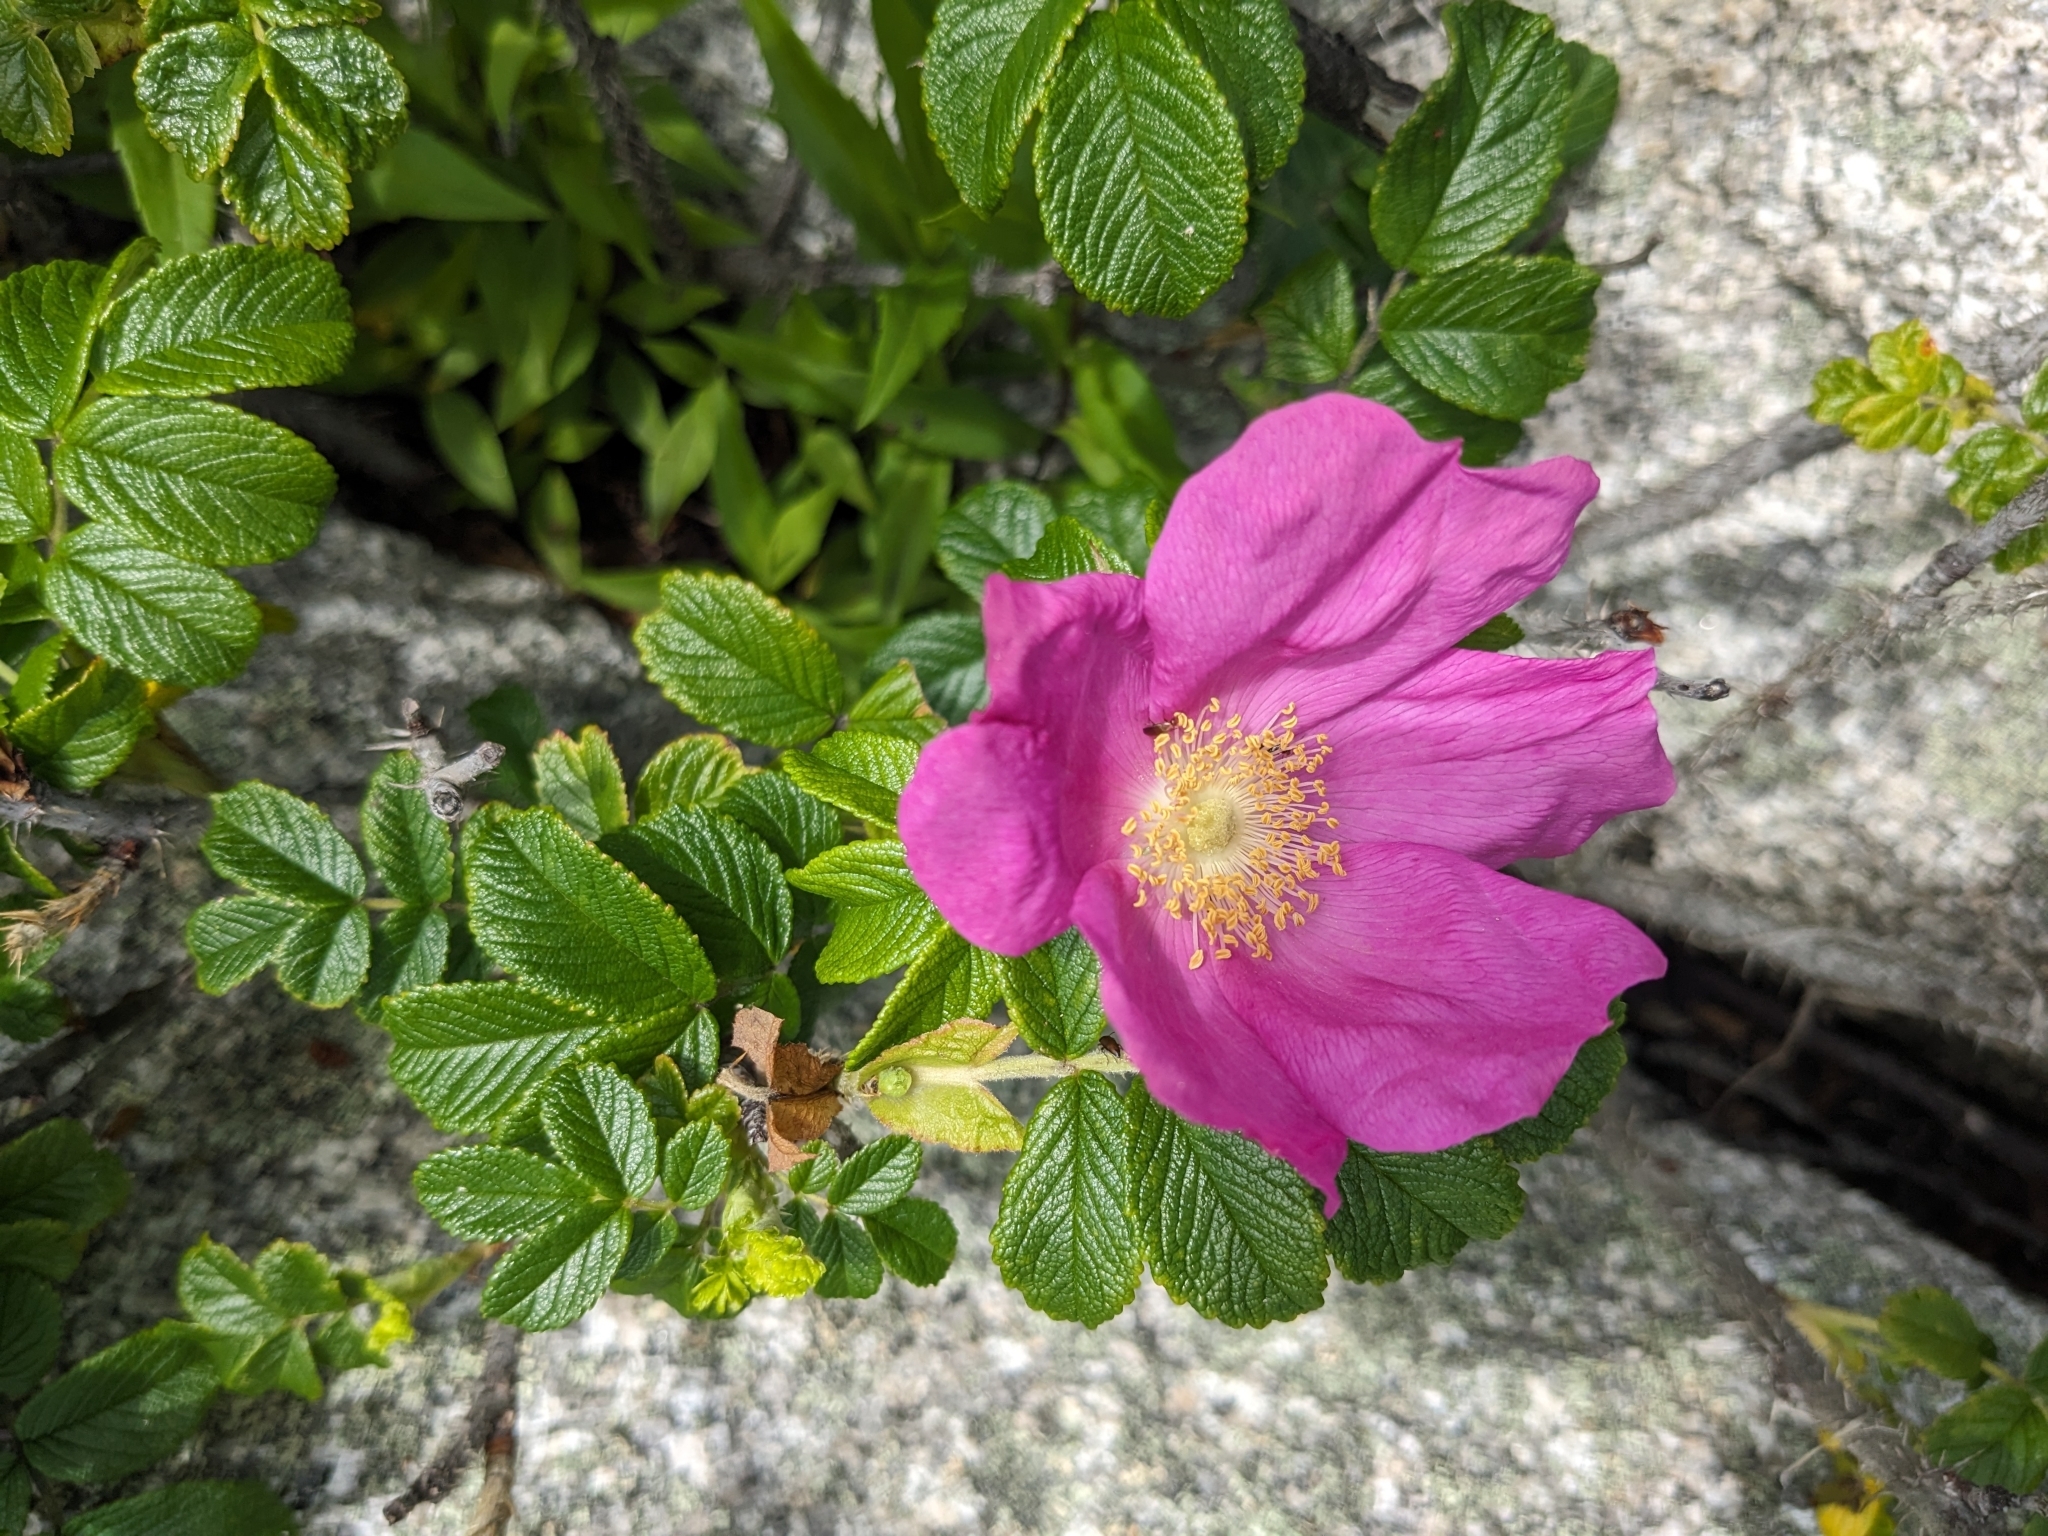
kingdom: Plantae
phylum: Tracheophyta
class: Magnoliopsida
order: Rosales
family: Rosaceae
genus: Rosa
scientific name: Rosa rugosa
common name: Japanese rose
